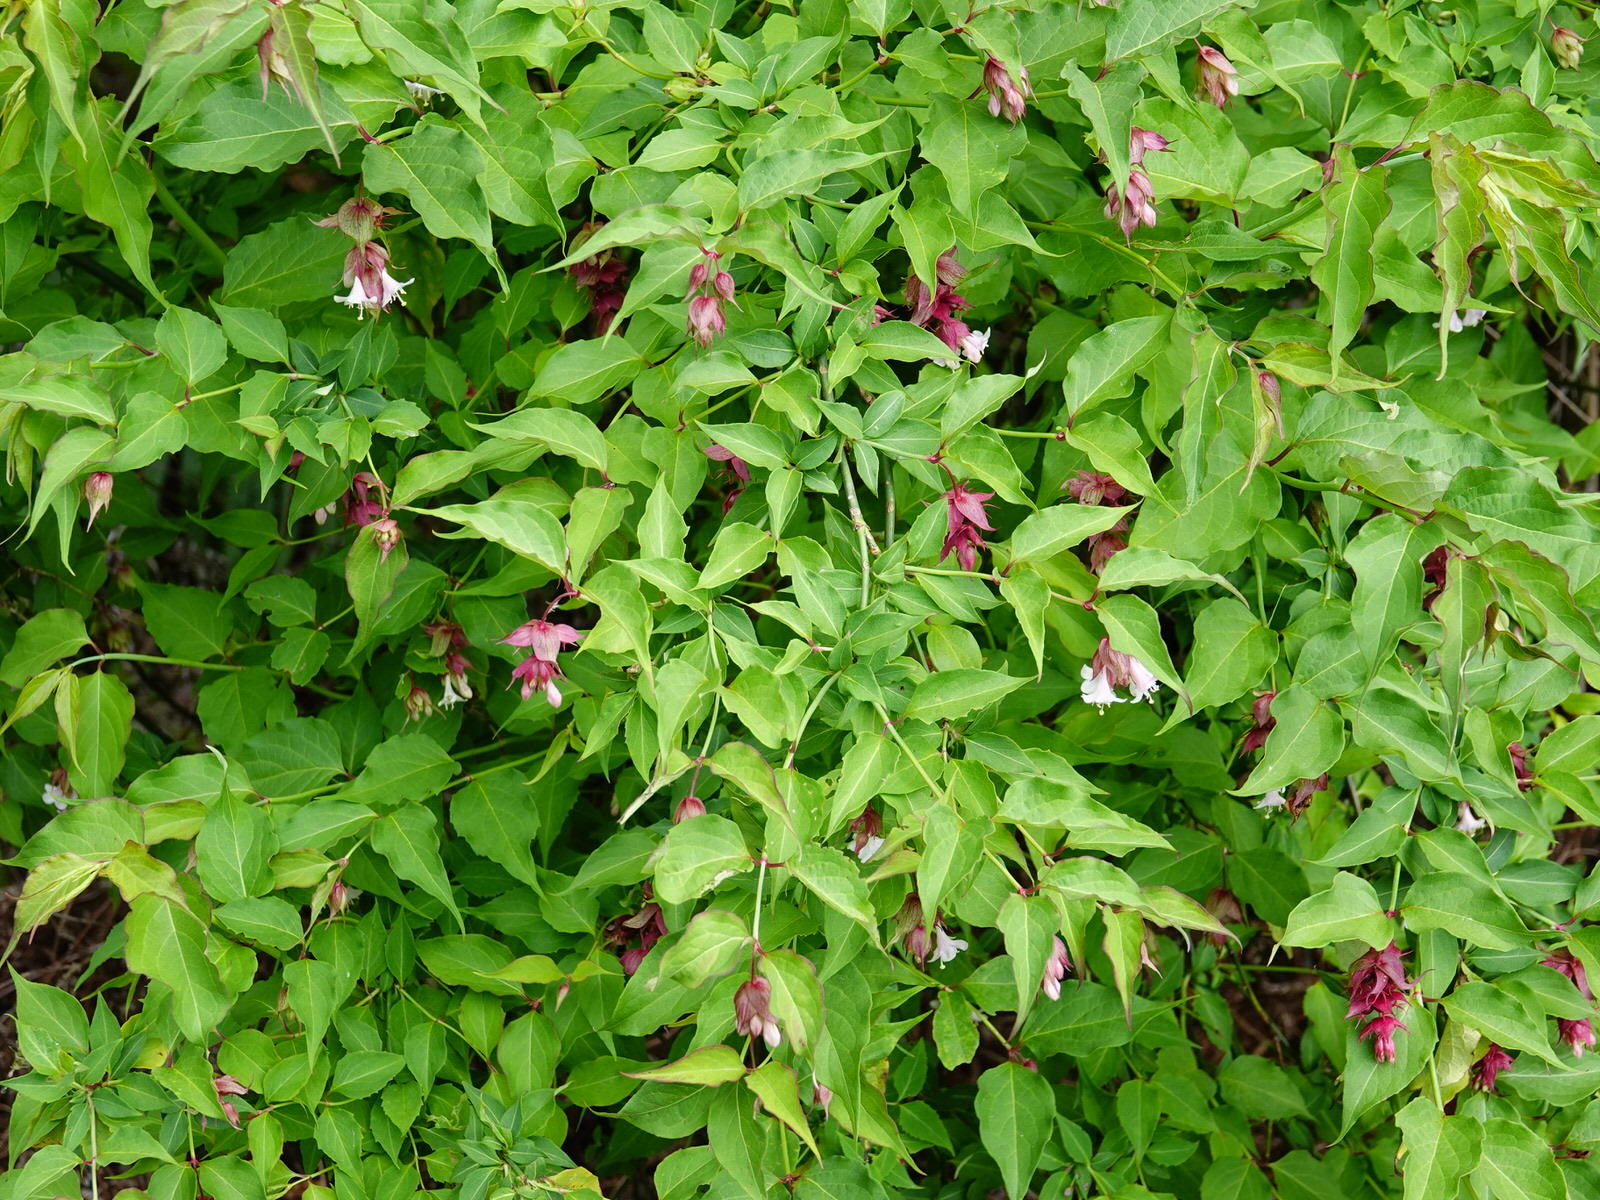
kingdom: Plantae
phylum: Tracheophyta
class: Magnoliopsida
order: Dipsacales
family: Caprifoliaceae
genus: Leycesteria
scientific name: Leycesteria formosa
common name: Himalayan honeysuckle
